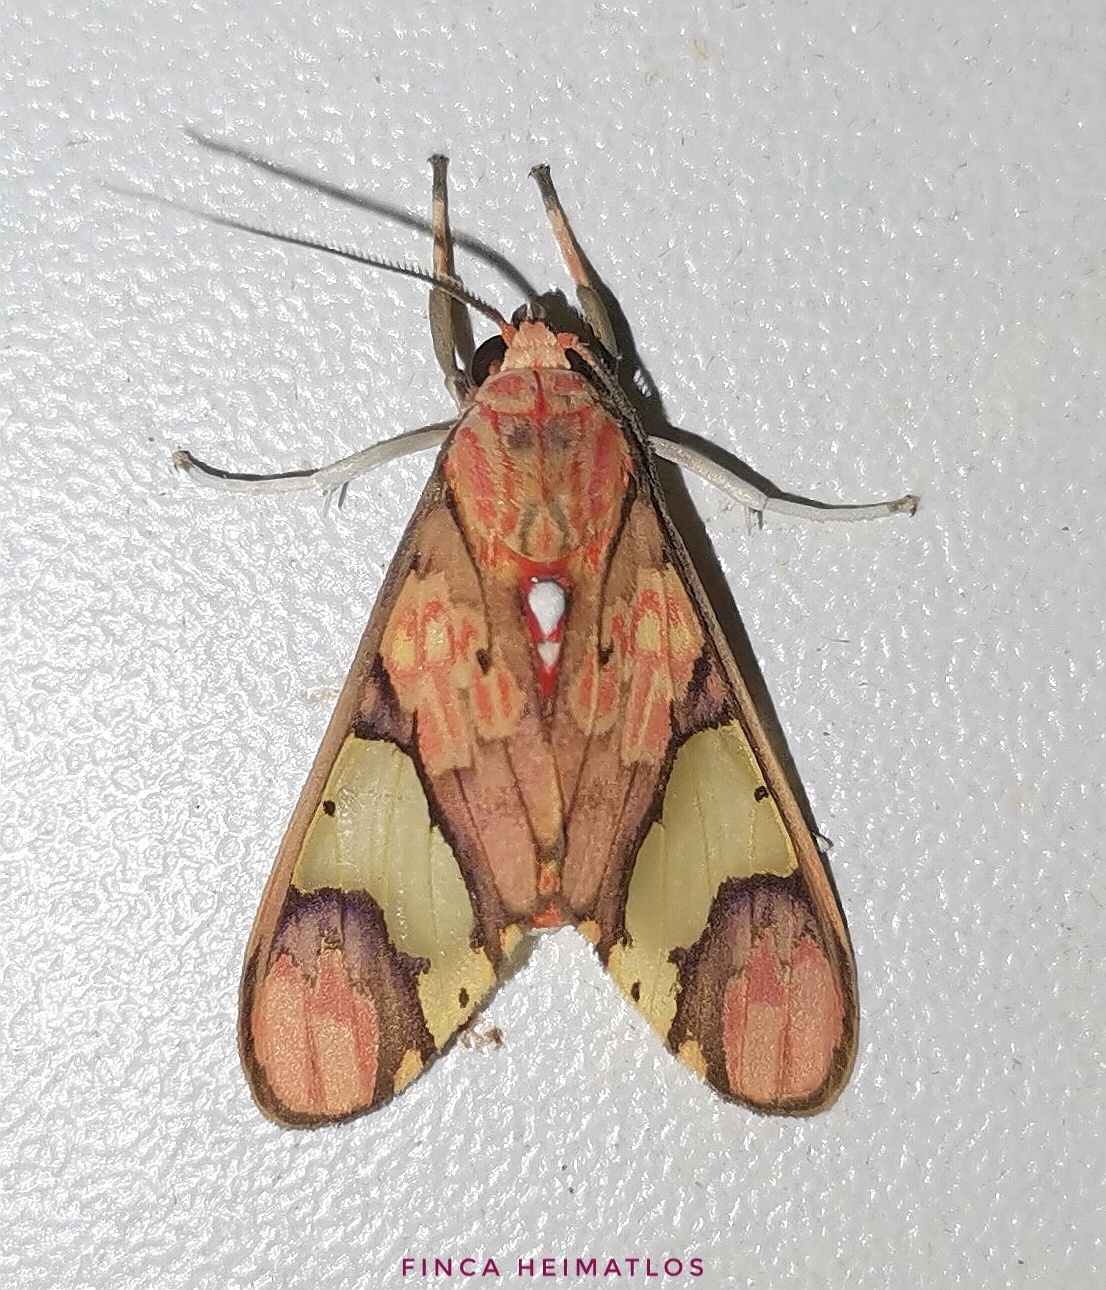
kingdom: Animalia
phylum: Arthropoda
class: Insecta
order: Lepidoptera
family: Erebidae
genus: Neonerita
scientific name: Neonerita dorsipuncta
